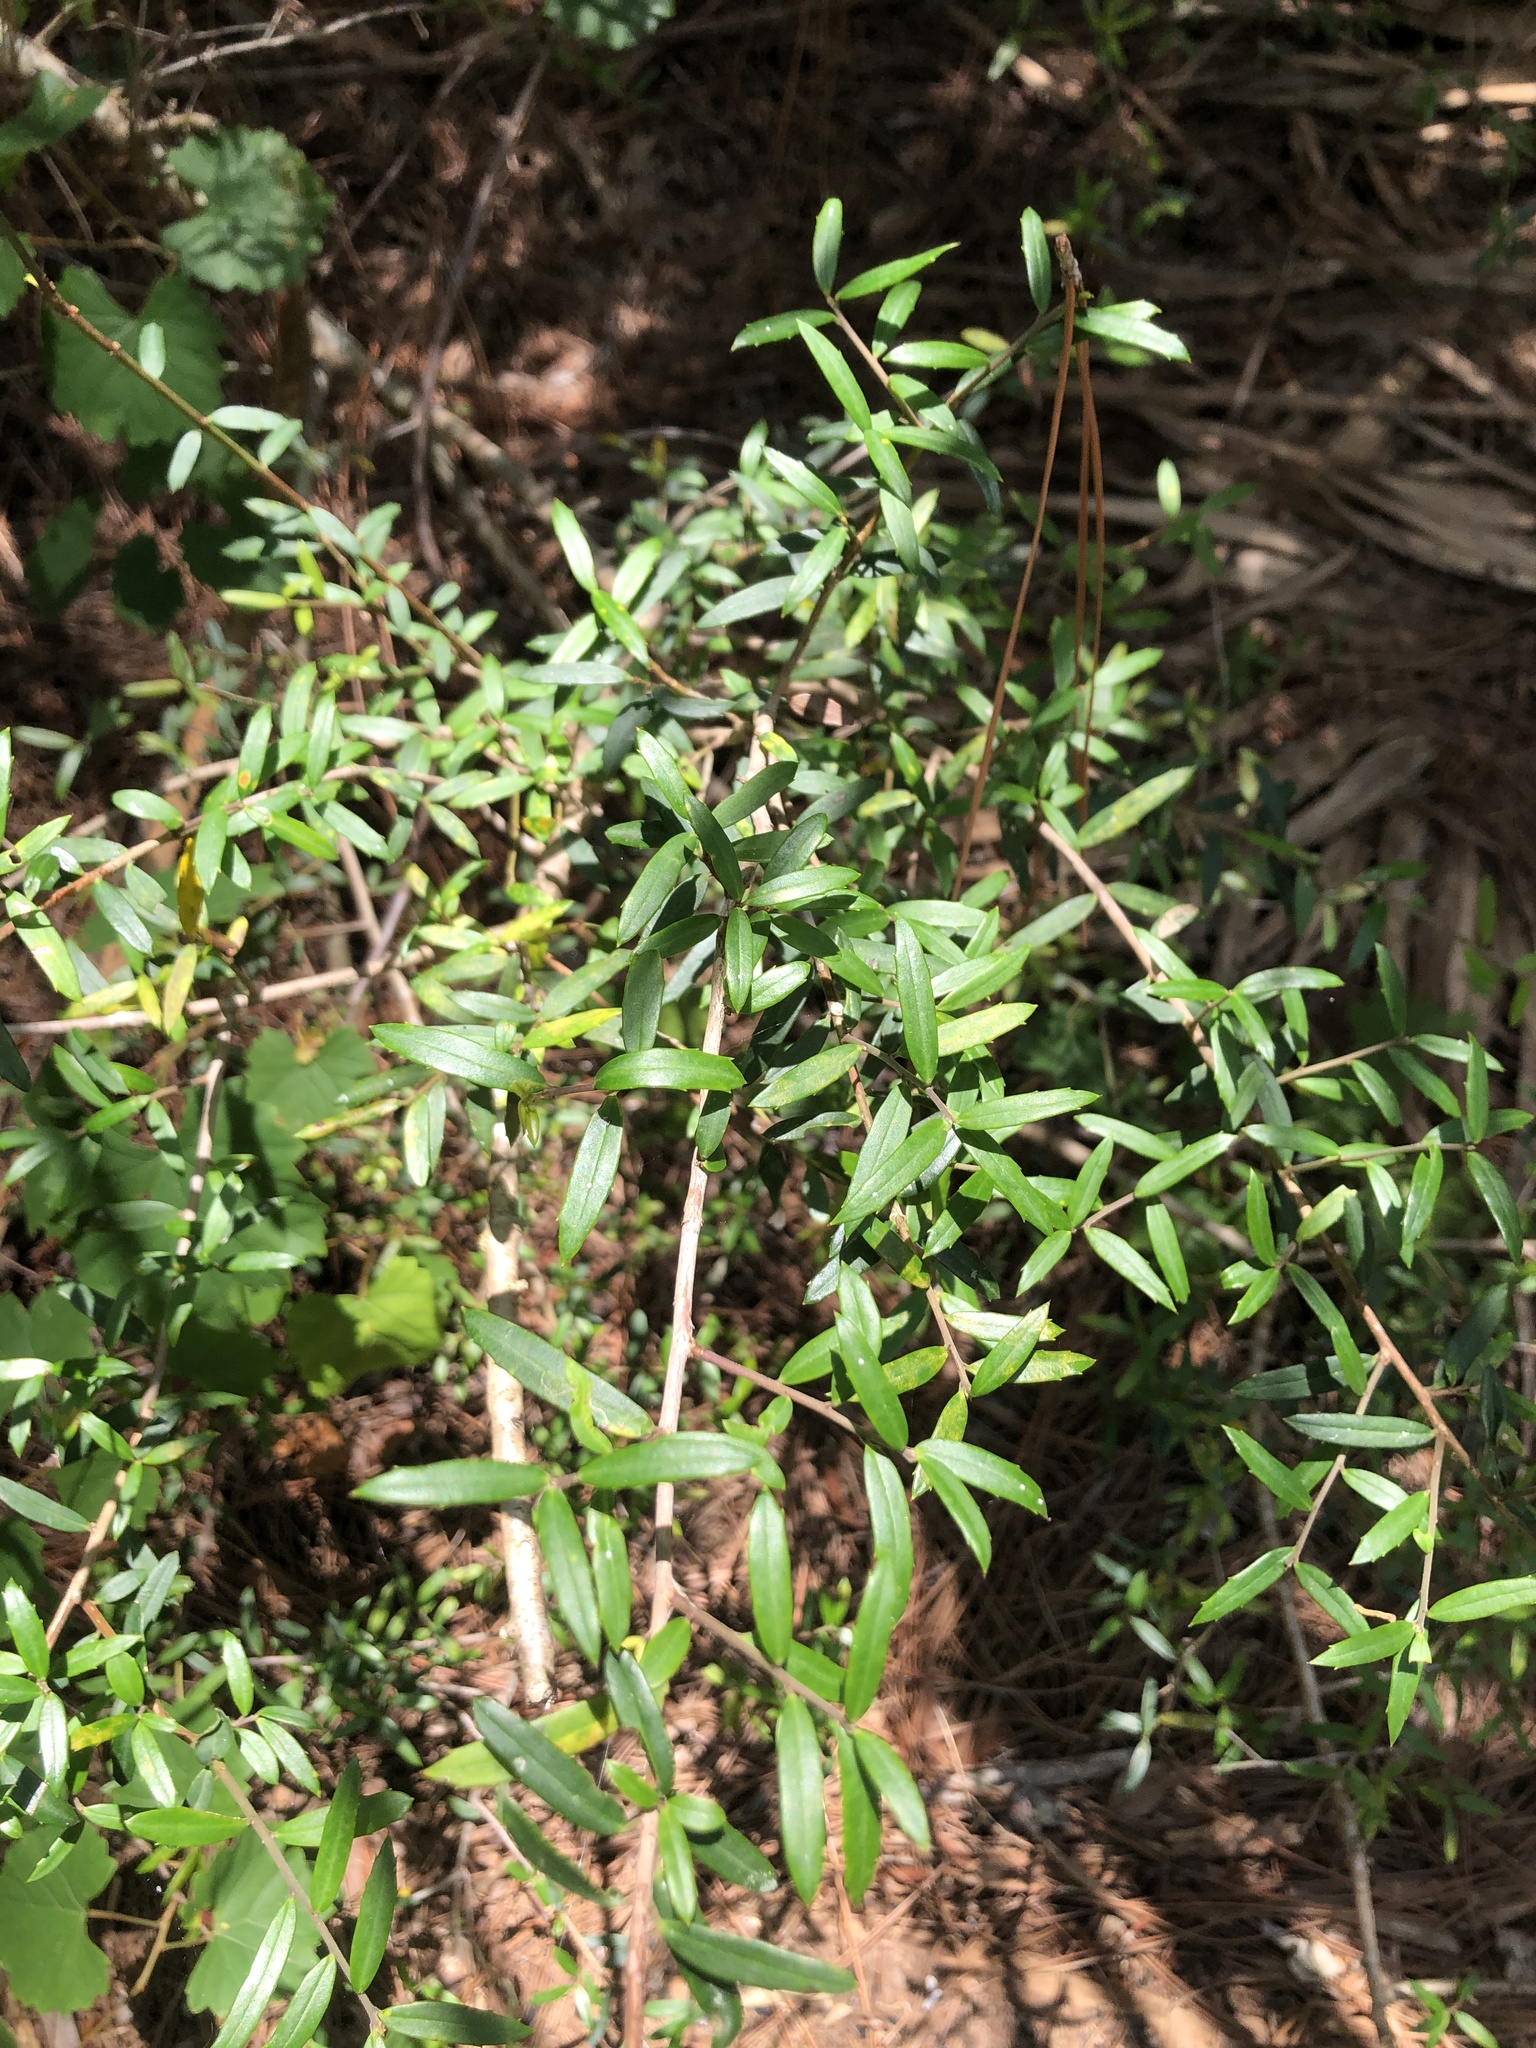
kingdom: Plantae
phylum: Tracheophyta
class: Magnoliopsida
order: Aquifoliales
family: Aquifoliaceae
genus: Ilex
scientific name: Ilex myrtifolia
